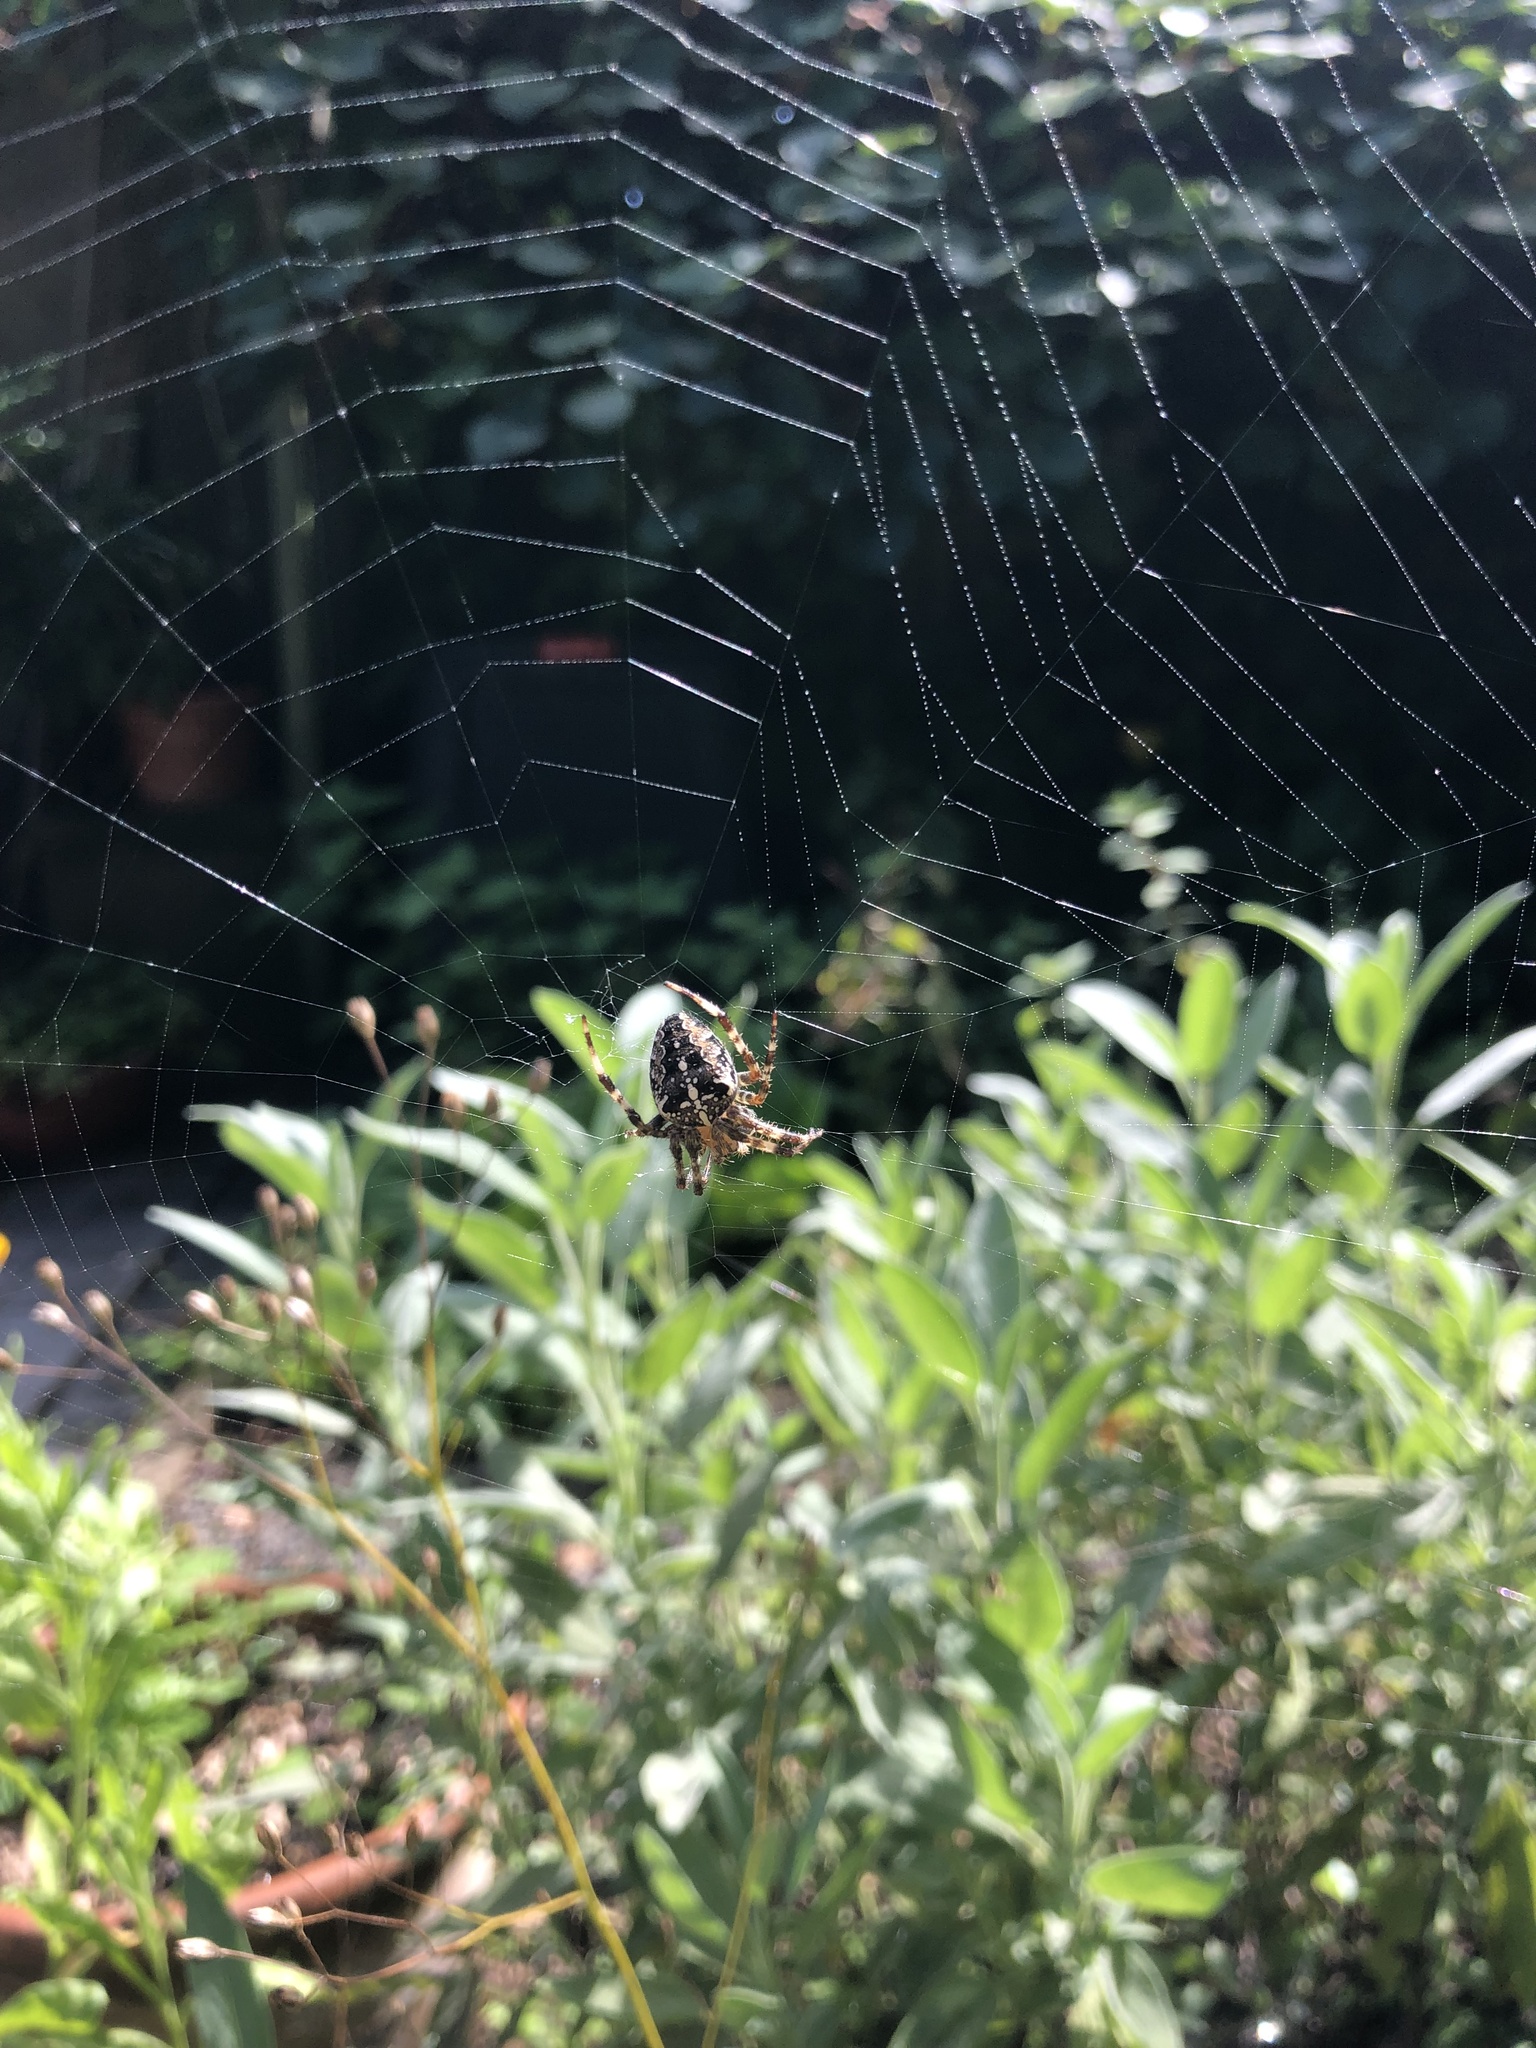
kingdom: Animalia
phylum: Arthropoda
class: Arachnida
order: Araneae
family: Araneidae
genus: Araneus
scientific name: Araneus diadematus
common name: Cross orbweaver
